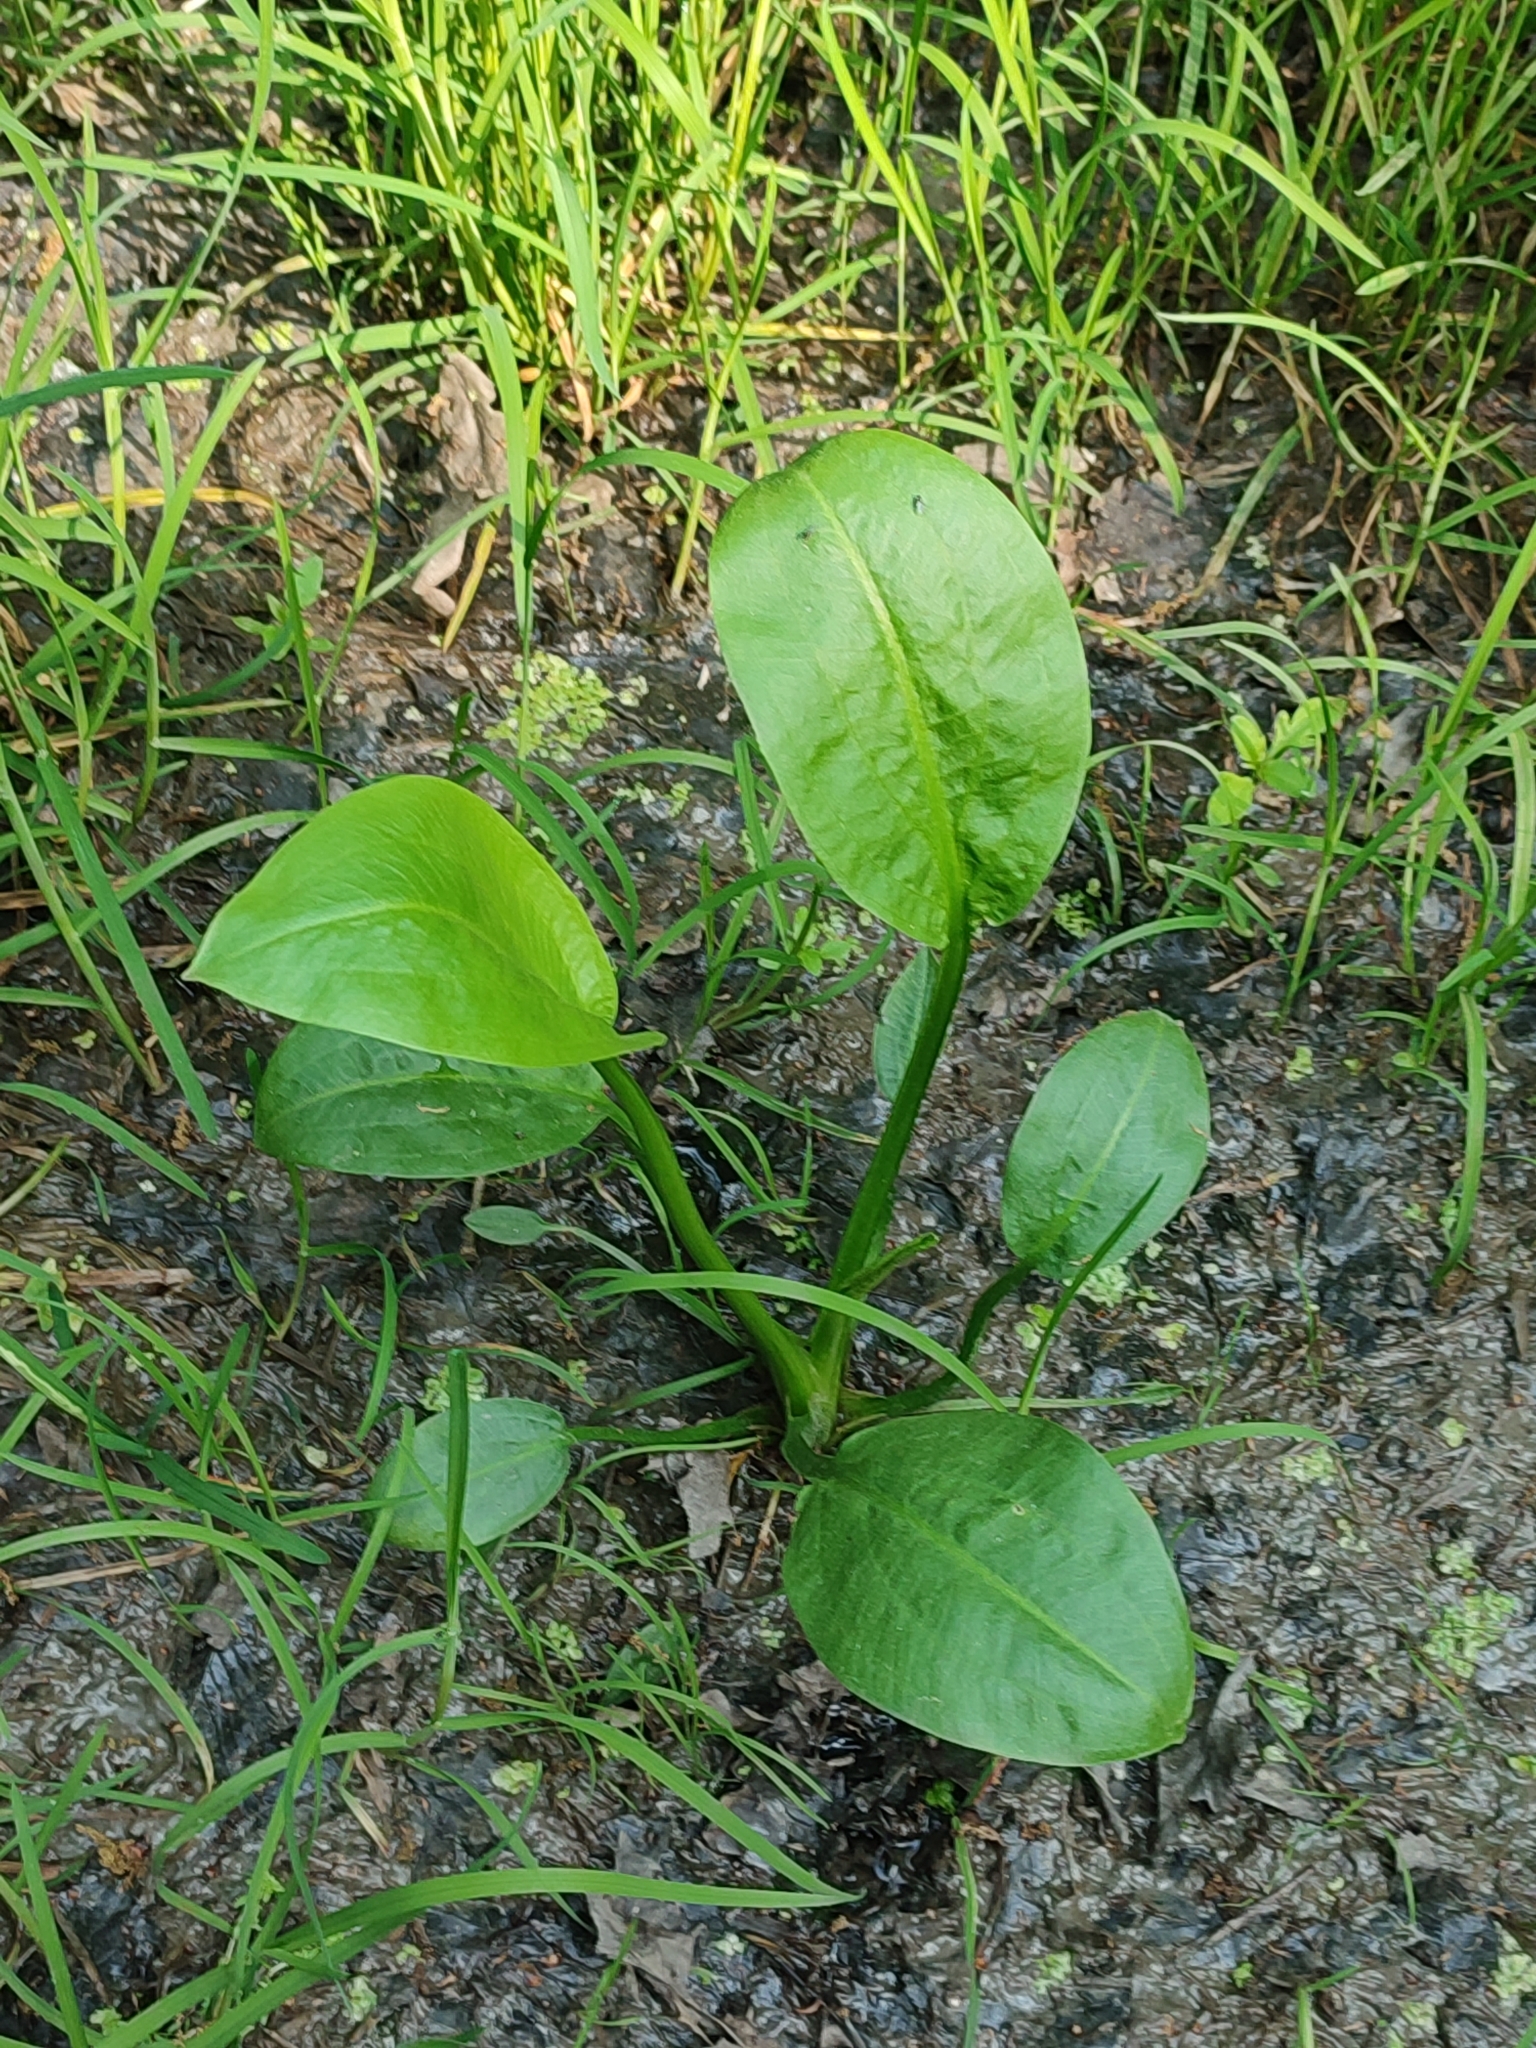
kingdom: Plantae
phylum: Tracheophyta
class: Liliopsida
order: Alismatales
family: Alismataceae
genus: Alisma
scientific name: Alisma plantago-aquatica
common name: Water-plantain
